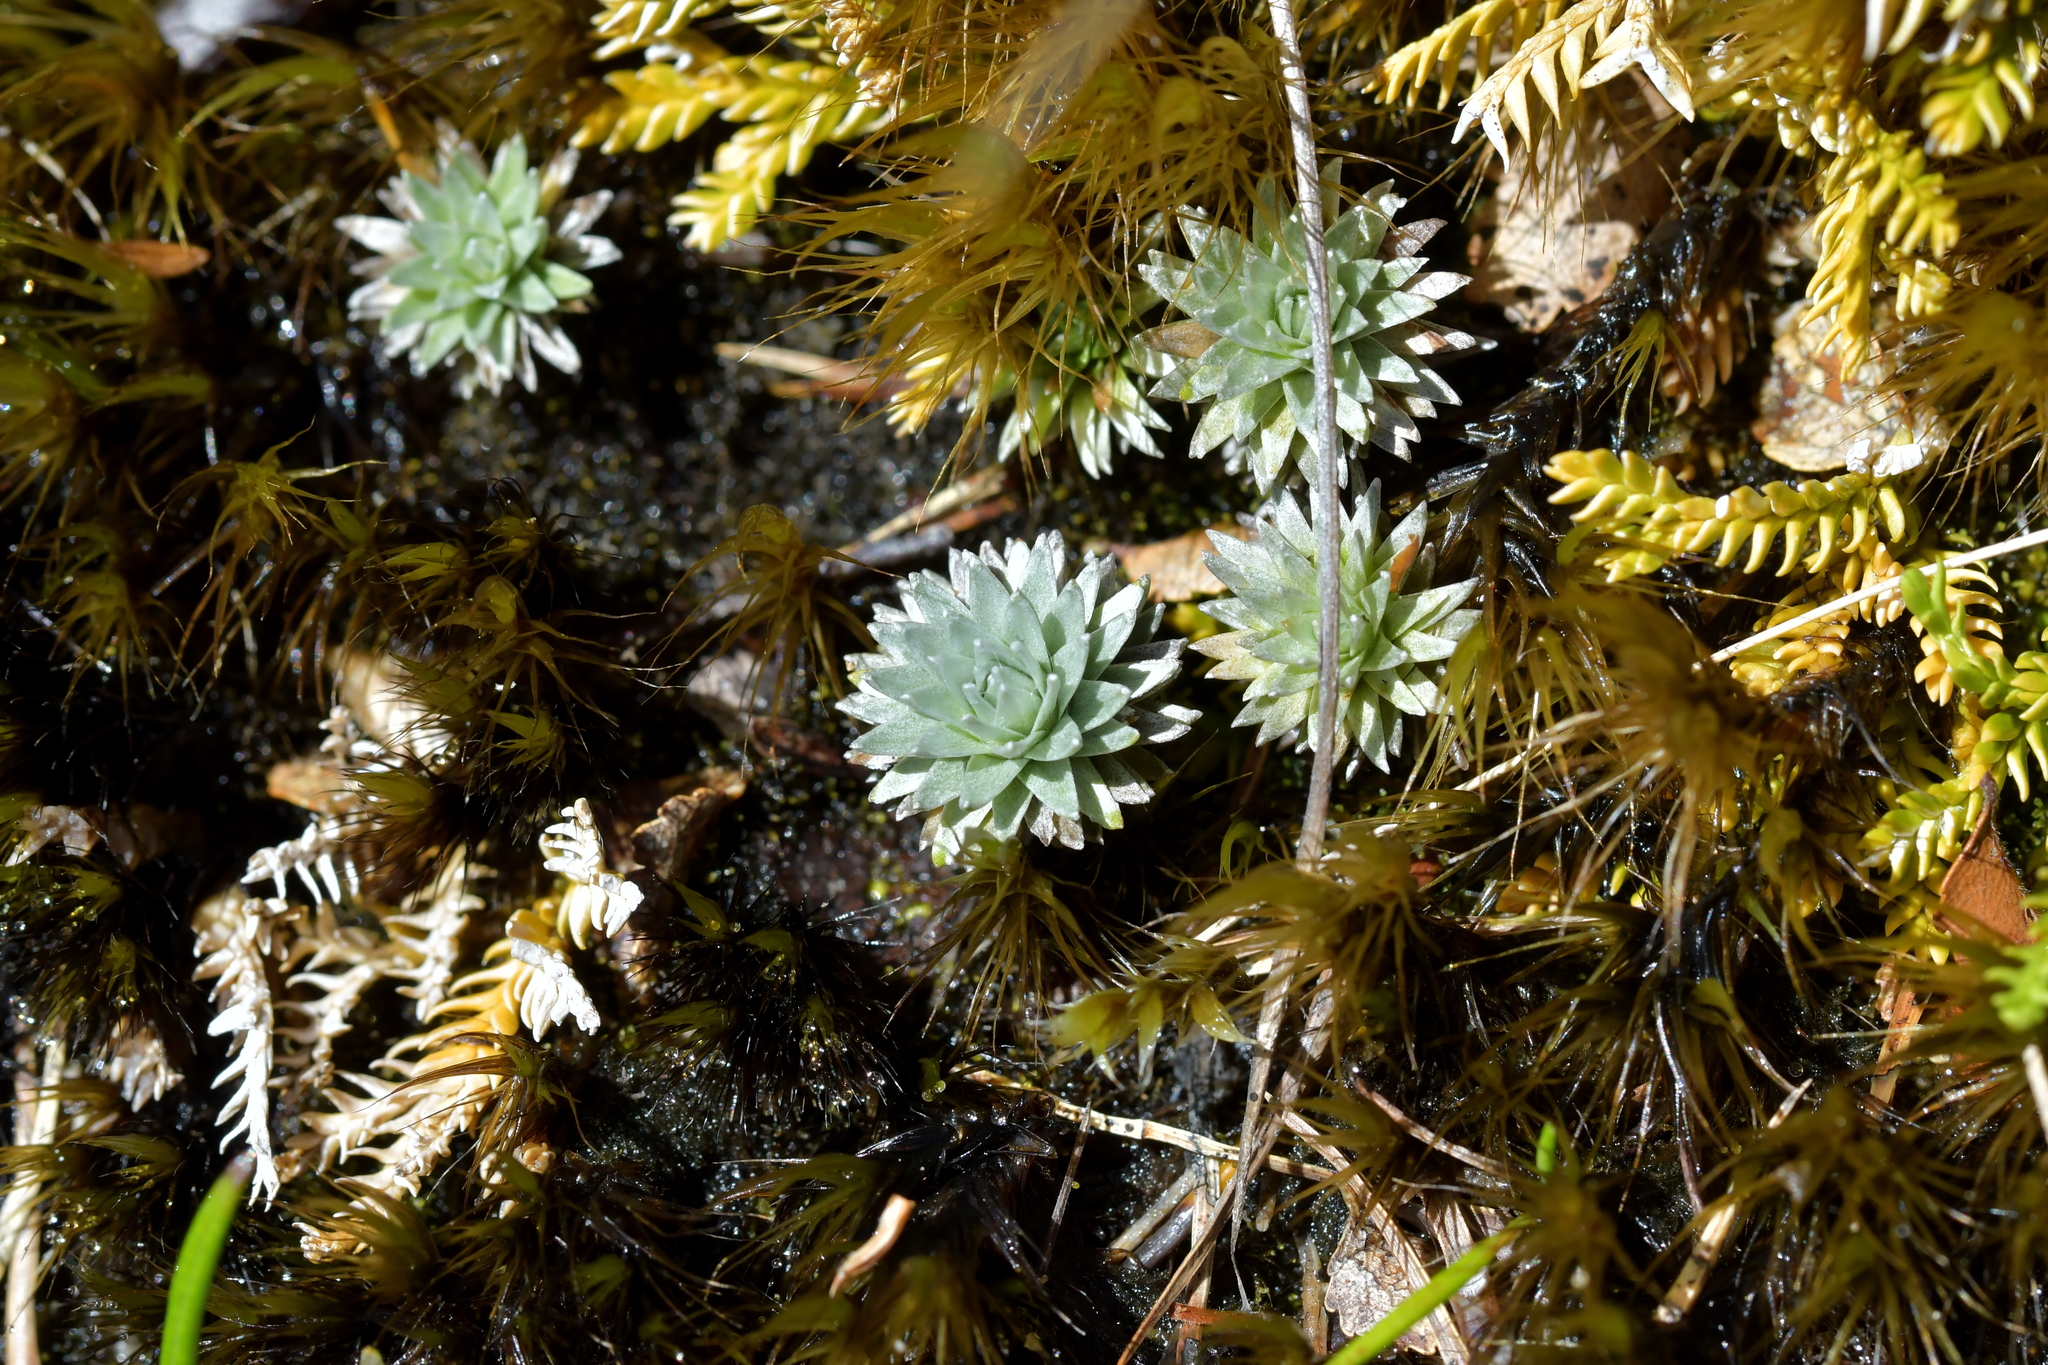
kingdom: Plantae
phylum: Tracheophyta
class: Magnoliopsida
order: Asterales
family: Asteraceae
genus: Raoulia
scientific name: Raoulia grandiflora
